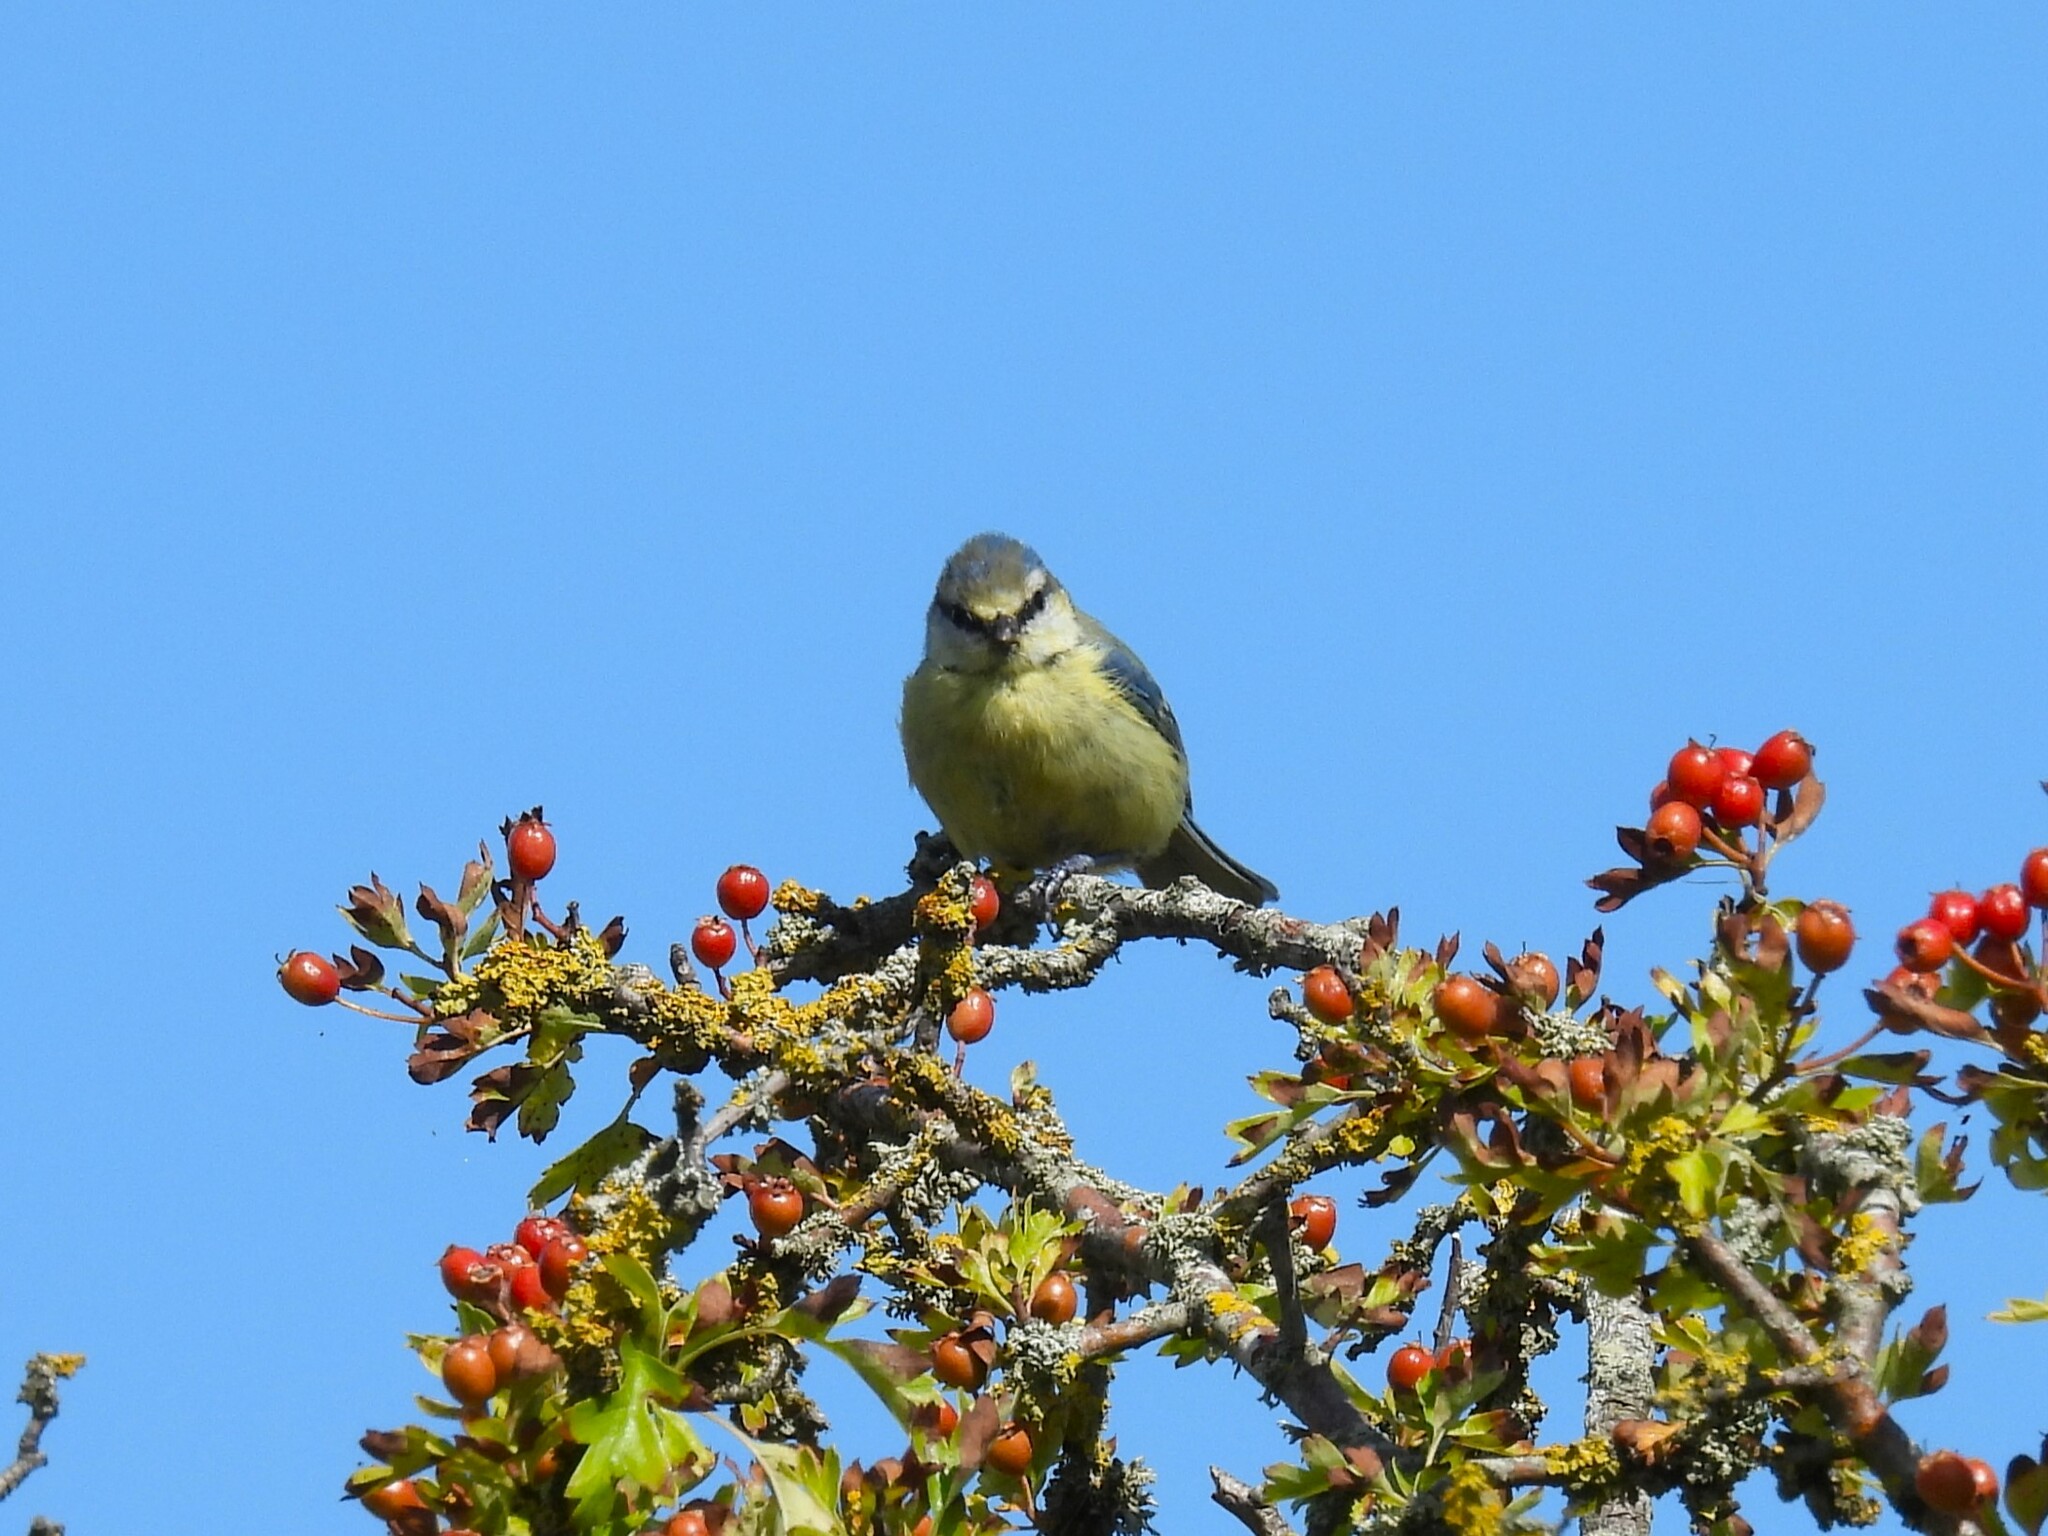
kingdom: Animalia
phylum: Chordata
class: Aves
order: Passeriformes
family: Paridae
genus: Cyanistes
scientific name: Cyanistes caeruleus
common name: Eurasian blue tit
